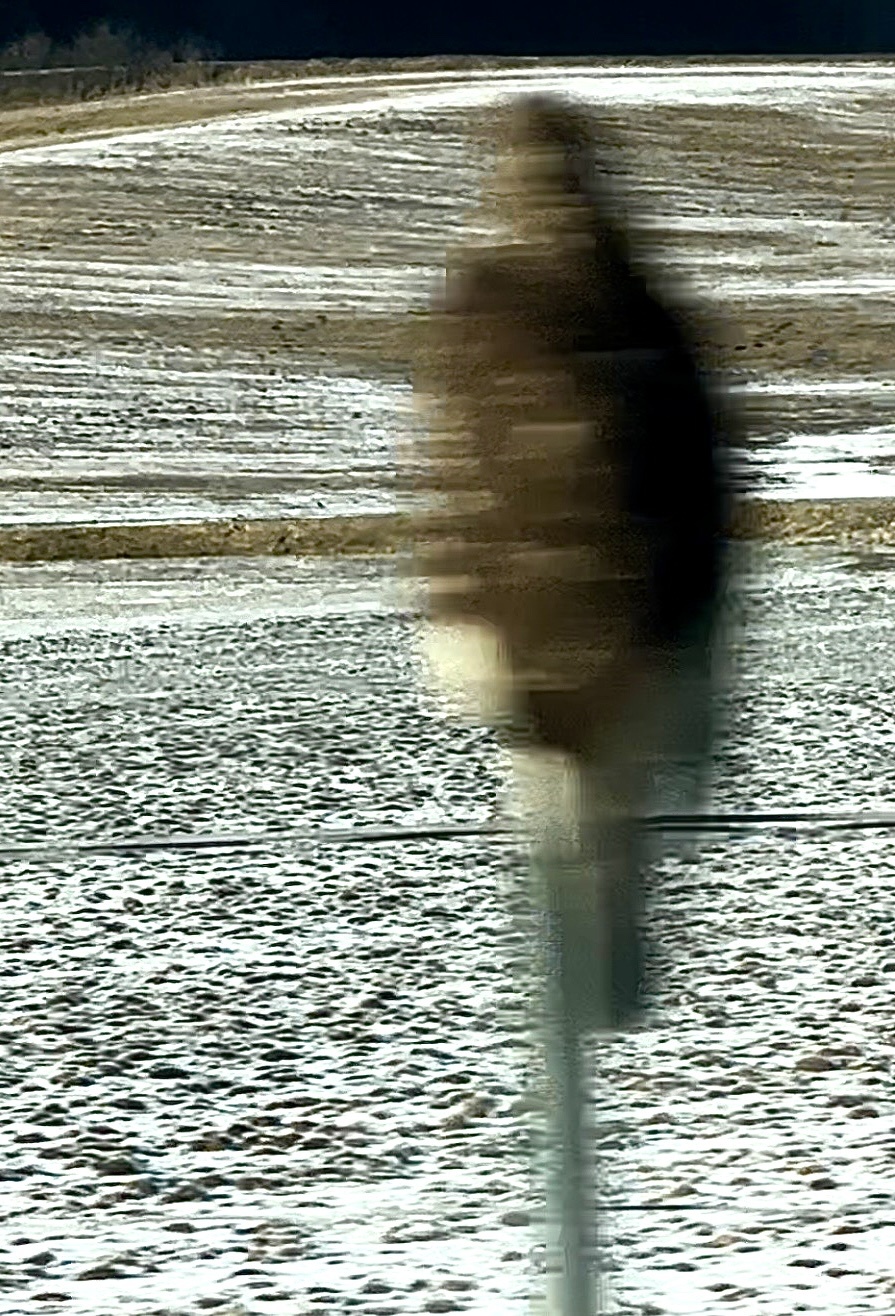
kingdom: Animalia
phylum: Chordata
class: Aves
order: Accipitriformes
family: Accipitridae
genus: Buteo
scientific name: Buteo buteo
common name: Common buzzard
